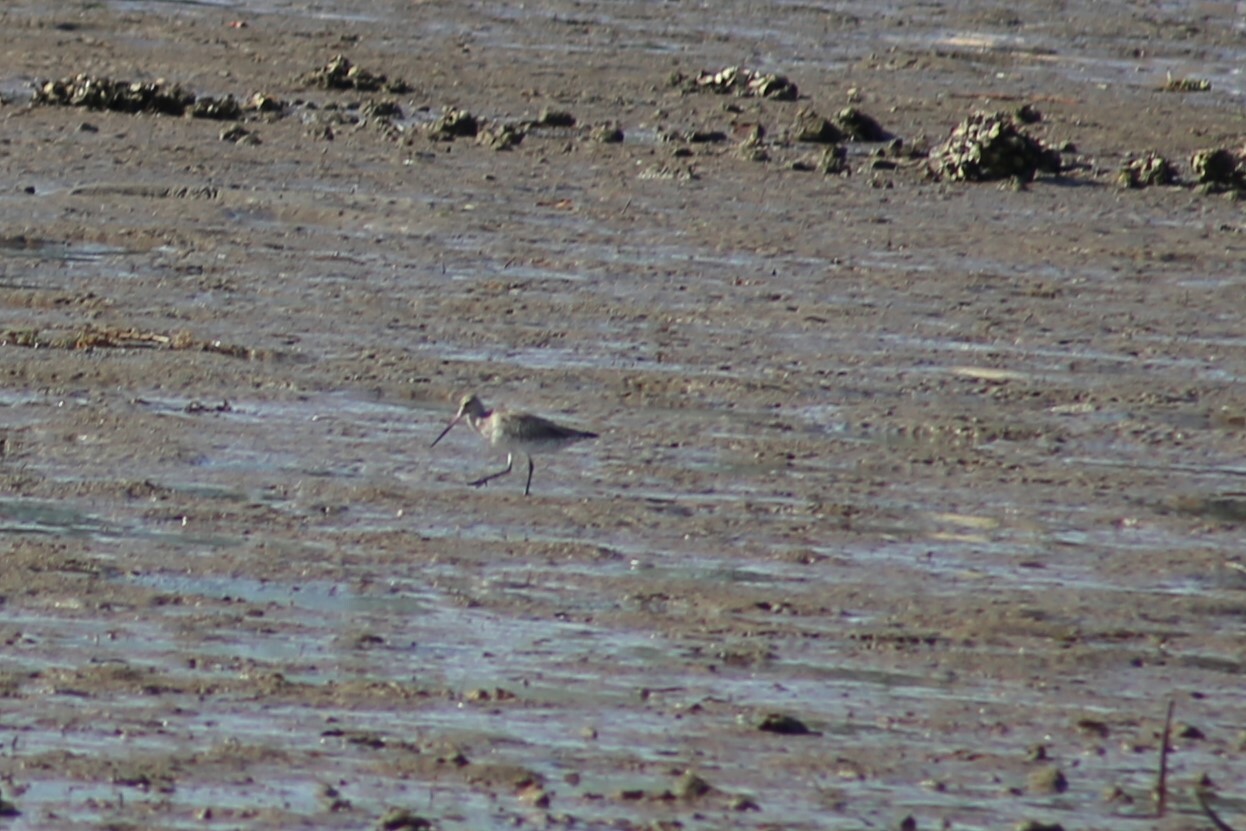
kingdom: Animalia
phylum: Chordata
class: Aves
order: Charadriiformes
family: Scolopacidae
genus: Limosa
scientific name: Limosa lapponica
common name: Bar-tailed godwit
